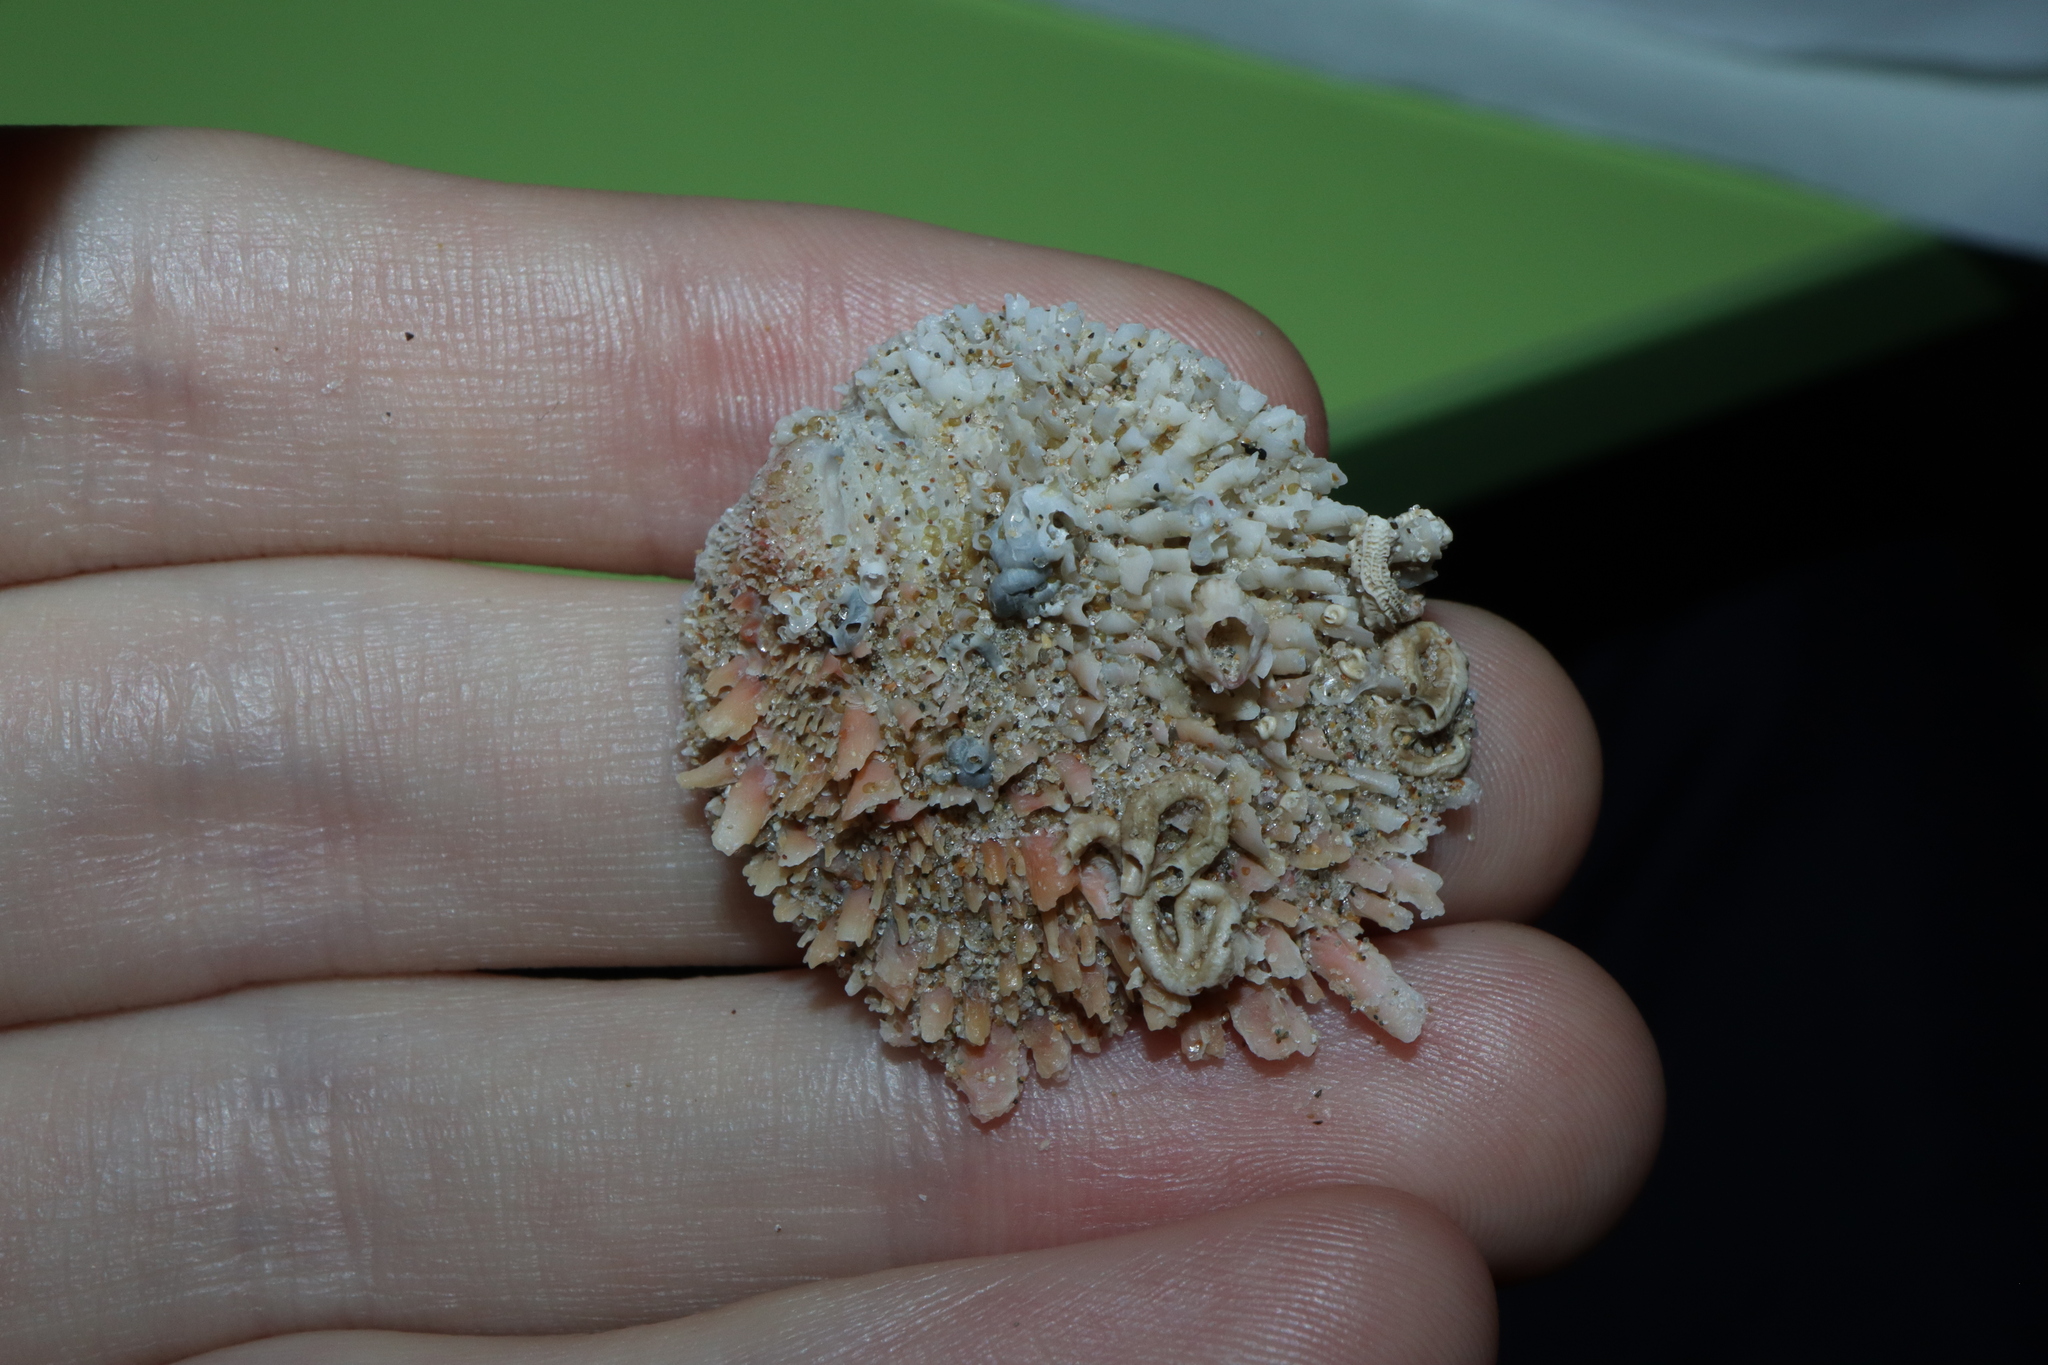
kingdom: Animalia
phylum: Mollusca
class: Bivalvia
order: Venerida
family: Chamidae
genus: Chama
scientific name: Chama asperella
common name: Mollusca
